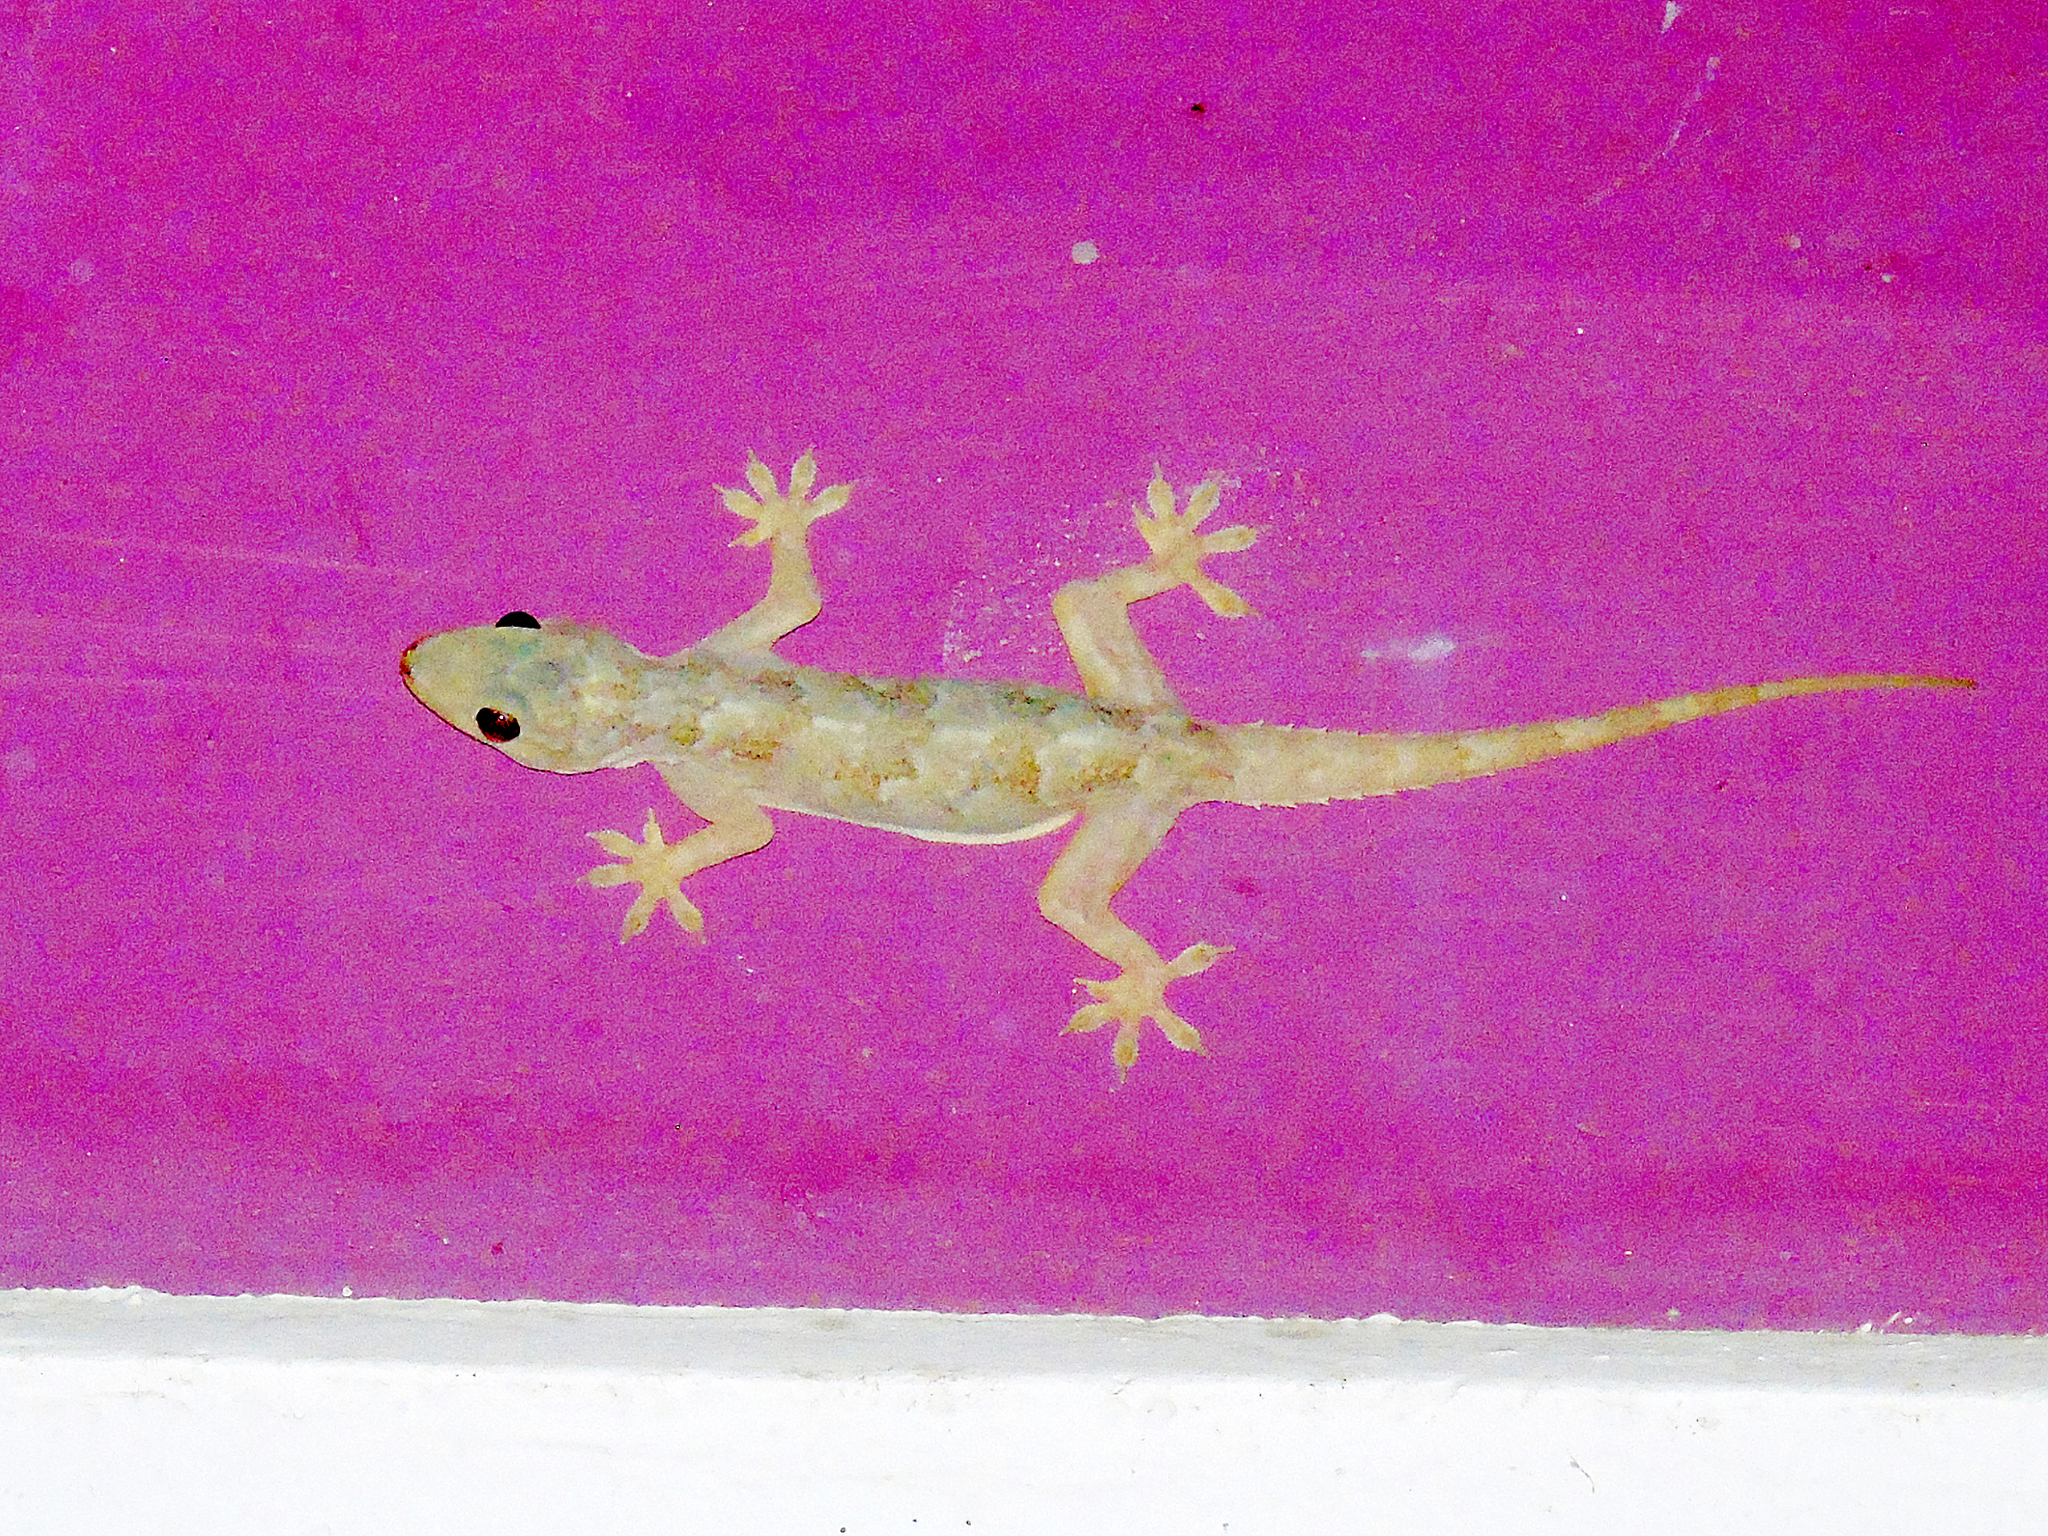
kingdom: Animalia
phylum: Chordata
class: Squamata
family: Gekkonidae
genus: Hemidactylus
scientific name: Hemidactylus flaviviridis
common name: Northern house gecko
